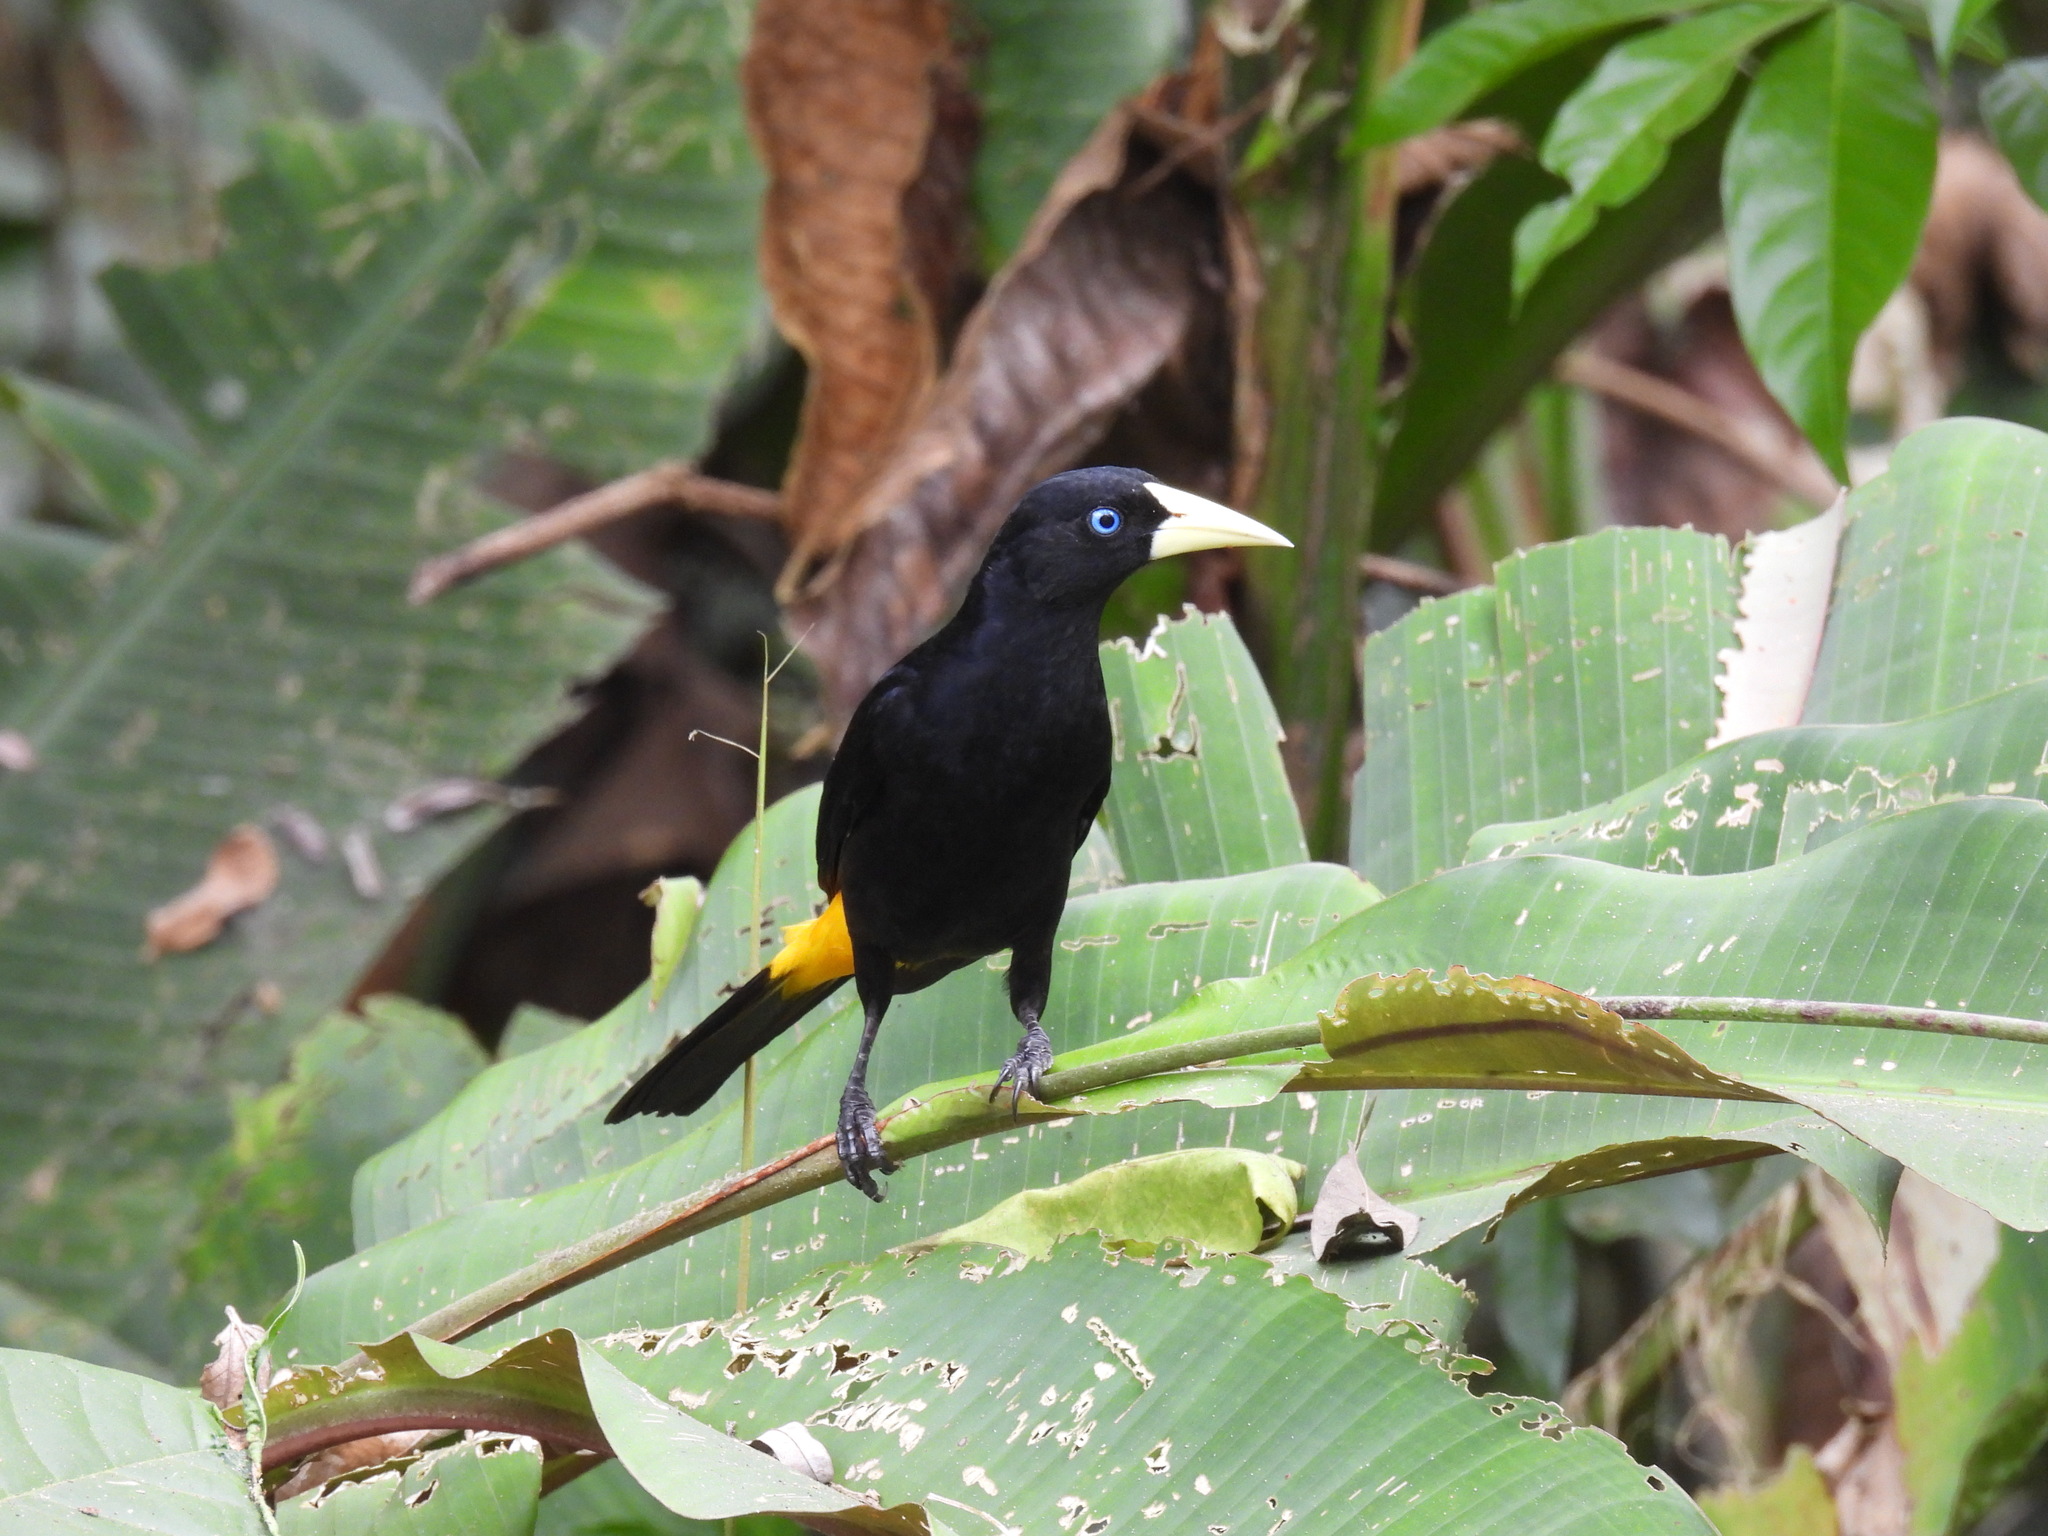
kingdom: Animalia
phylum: Chordata
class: Aves
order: Passeriformes
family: Icteridae
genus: Cacicus
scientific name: Cacicus cela
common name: Yellow-rumped cacique
